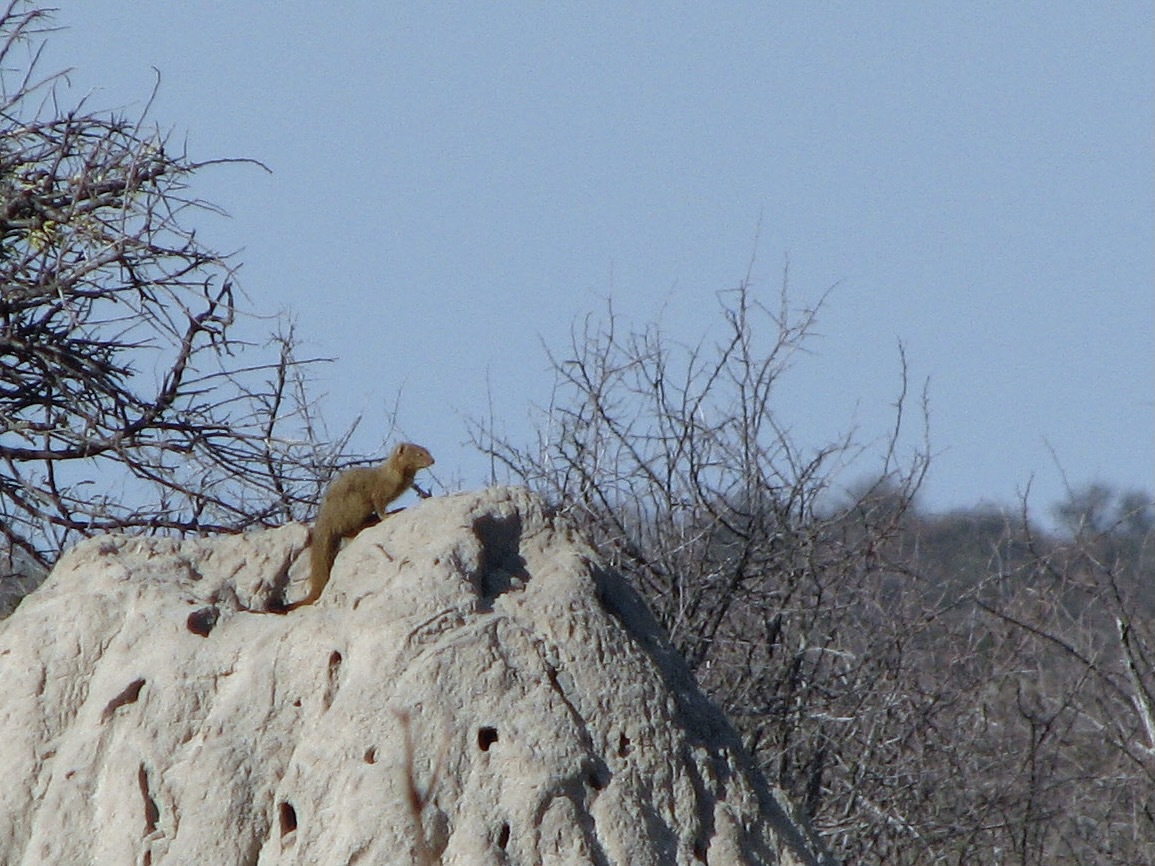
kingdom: Animalia
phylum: Chordata
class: Mammalia
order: Carnivora
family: Herpestidae
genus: Galerella
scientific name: Galerella sanguinea
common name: Slender mongoose
